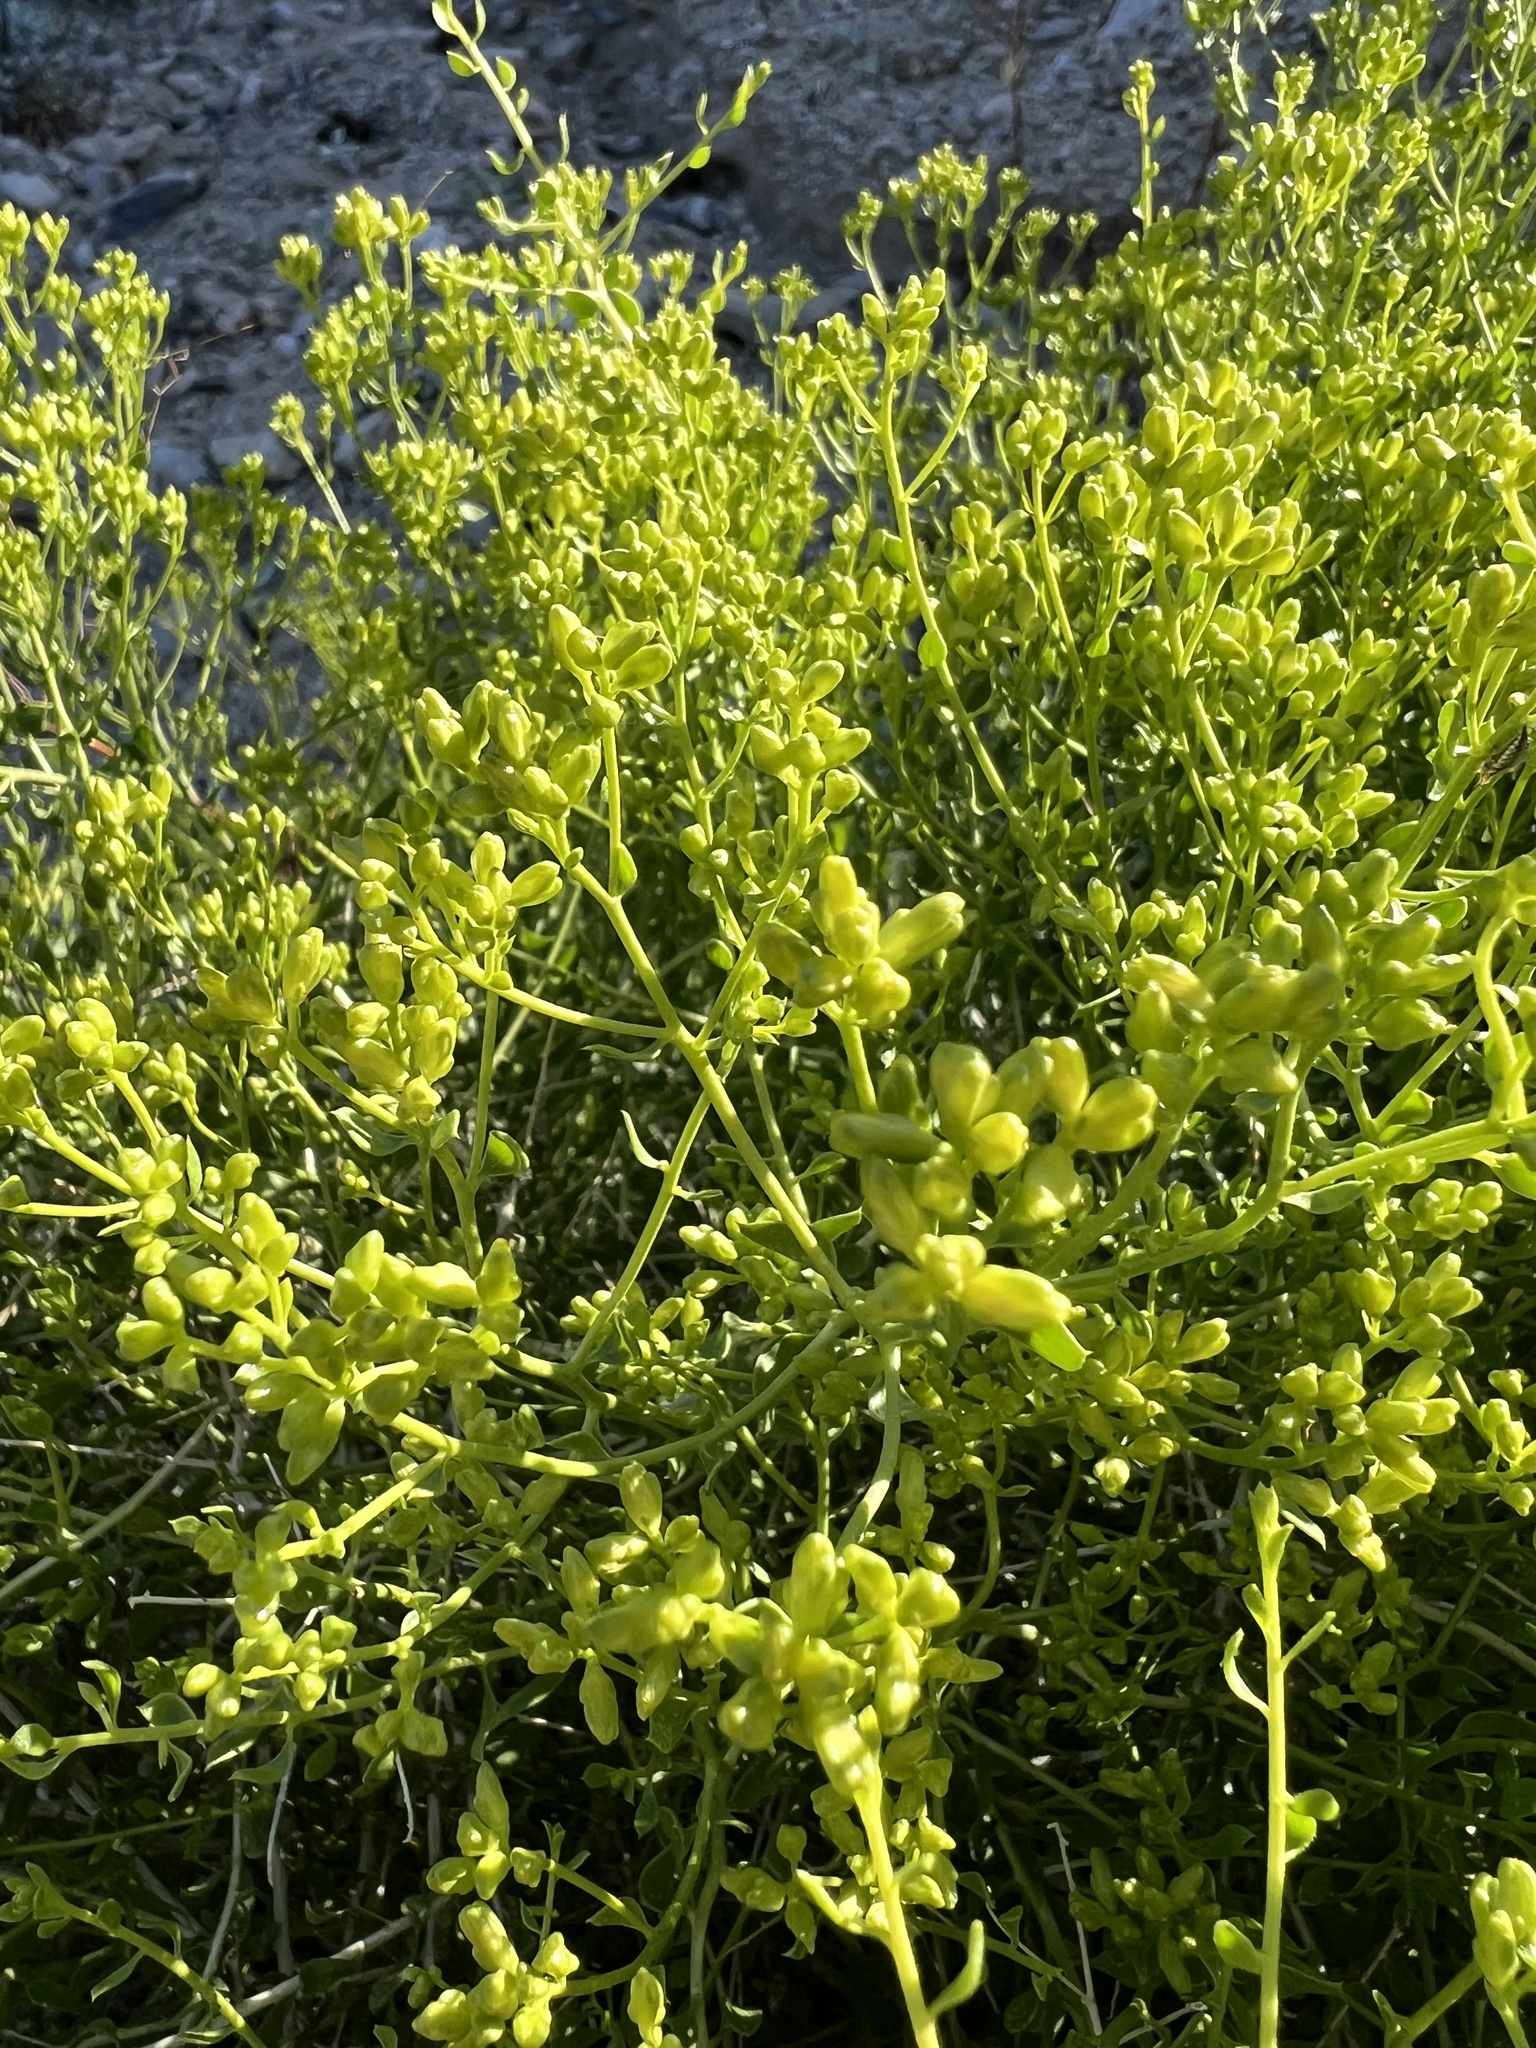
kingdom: Plantae
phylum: Tracheophyta
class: Magnoliopsida
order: Asterales
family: Asteraceae
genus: Amphipappus
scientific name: Amphipappus fremontii
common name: Fremont's chaffbush
